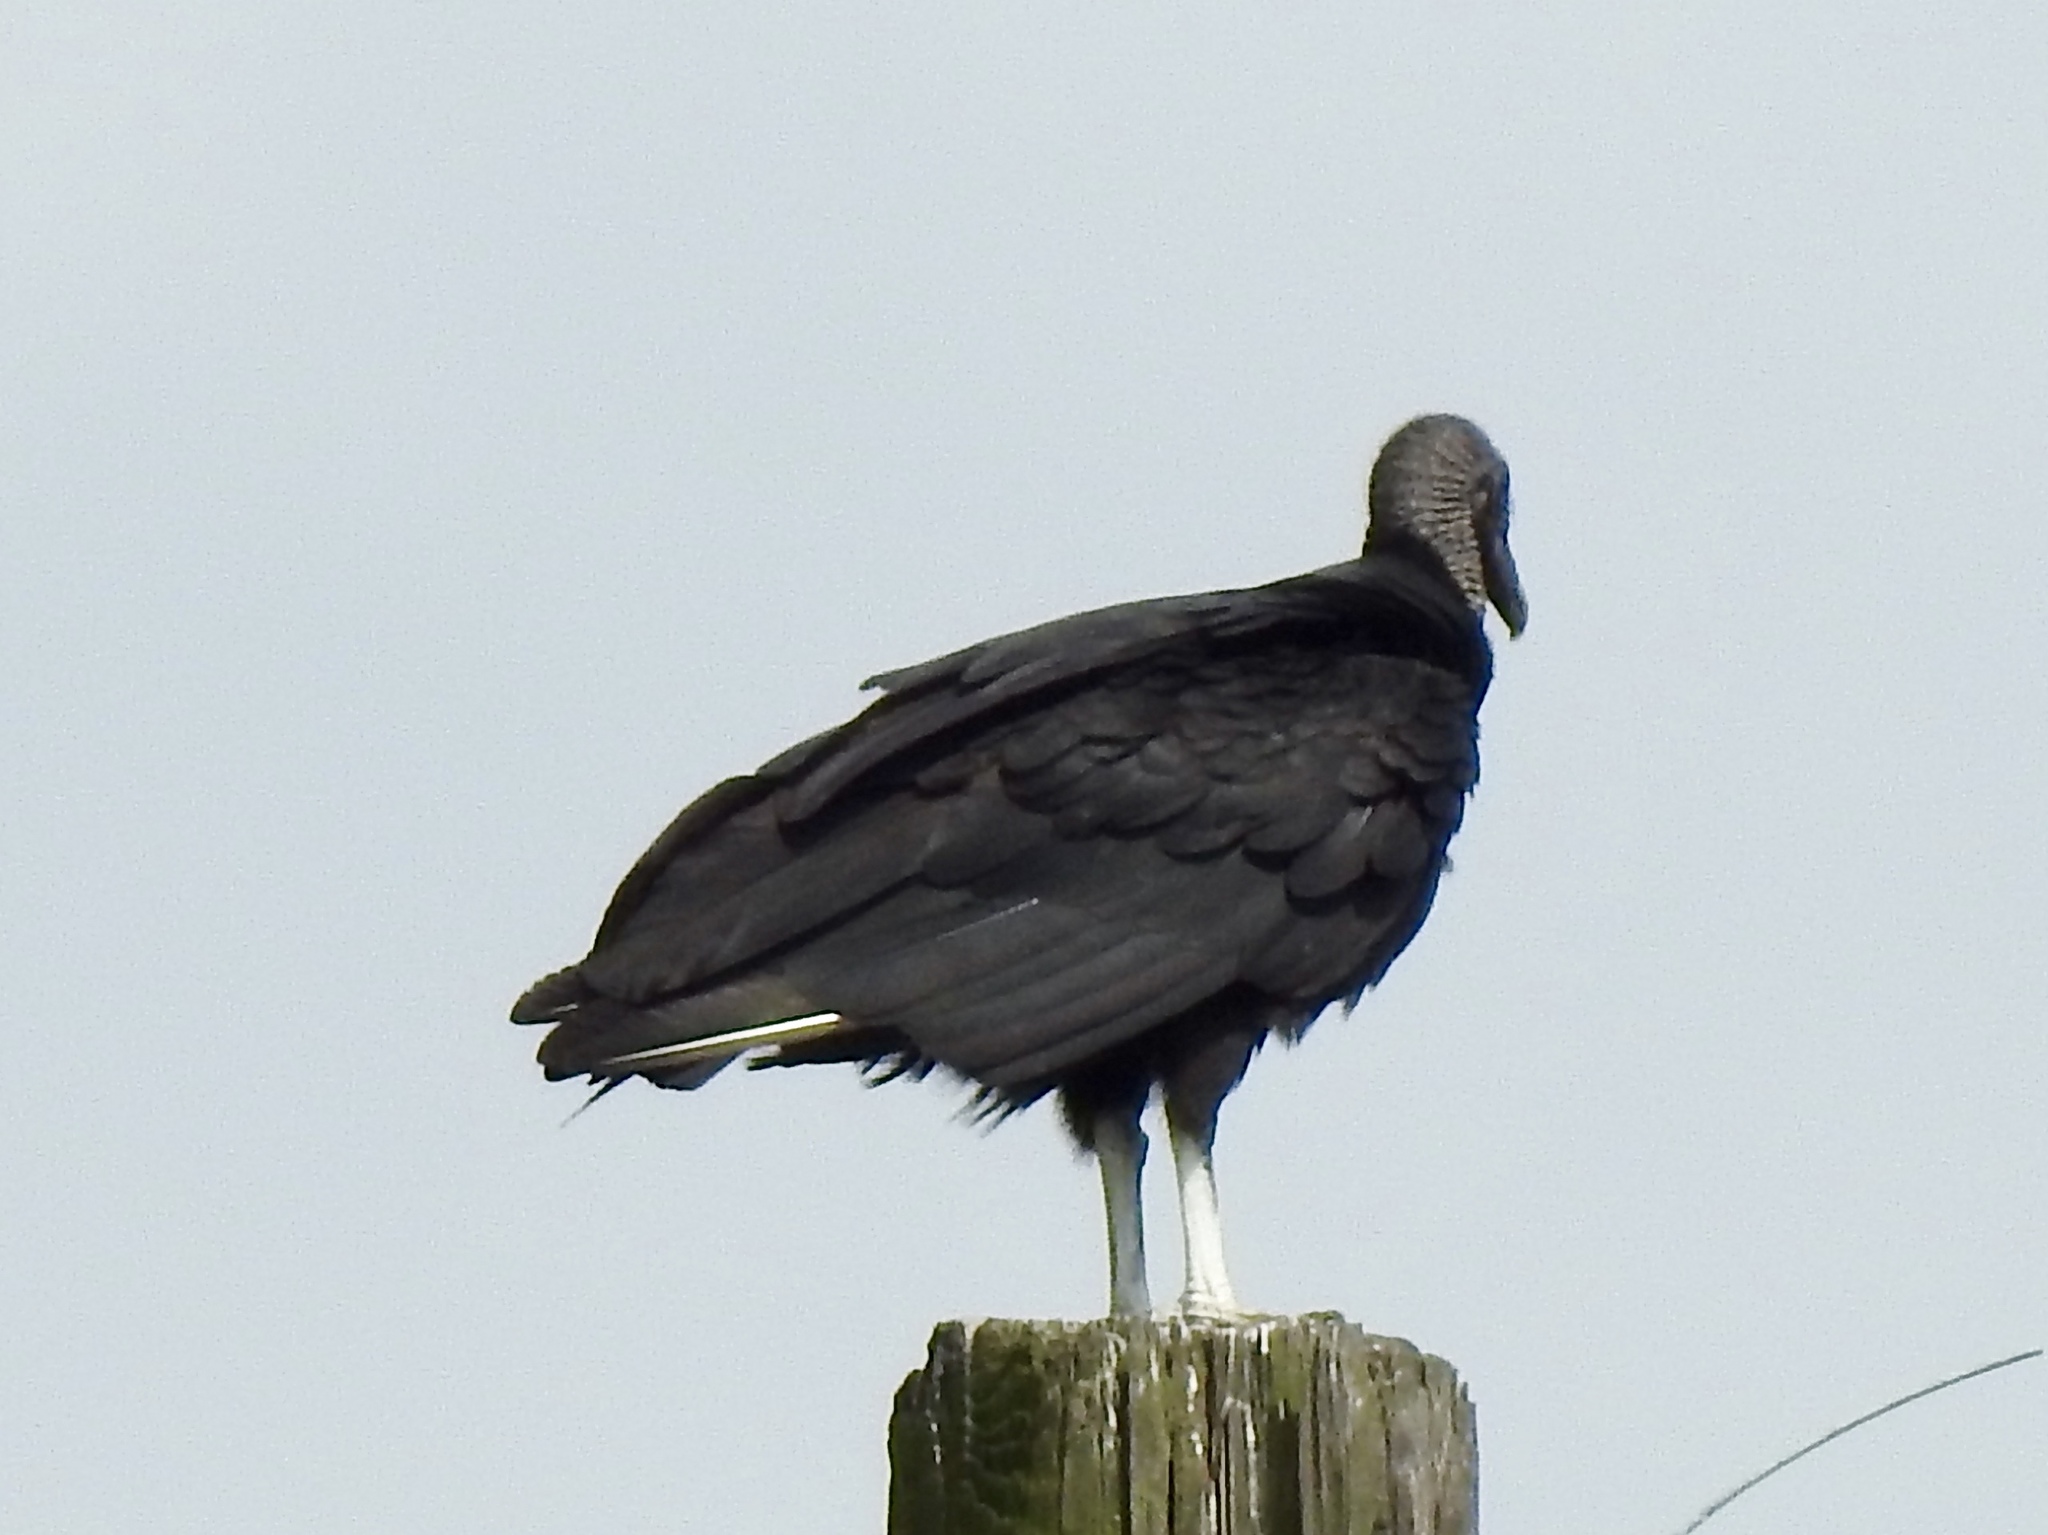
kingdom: Animalia
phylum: Chordata
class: Aves
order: Accipitriformes
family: Cathartidae
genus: Coragyps
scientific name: Coragyps atratus
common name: Black vulture
